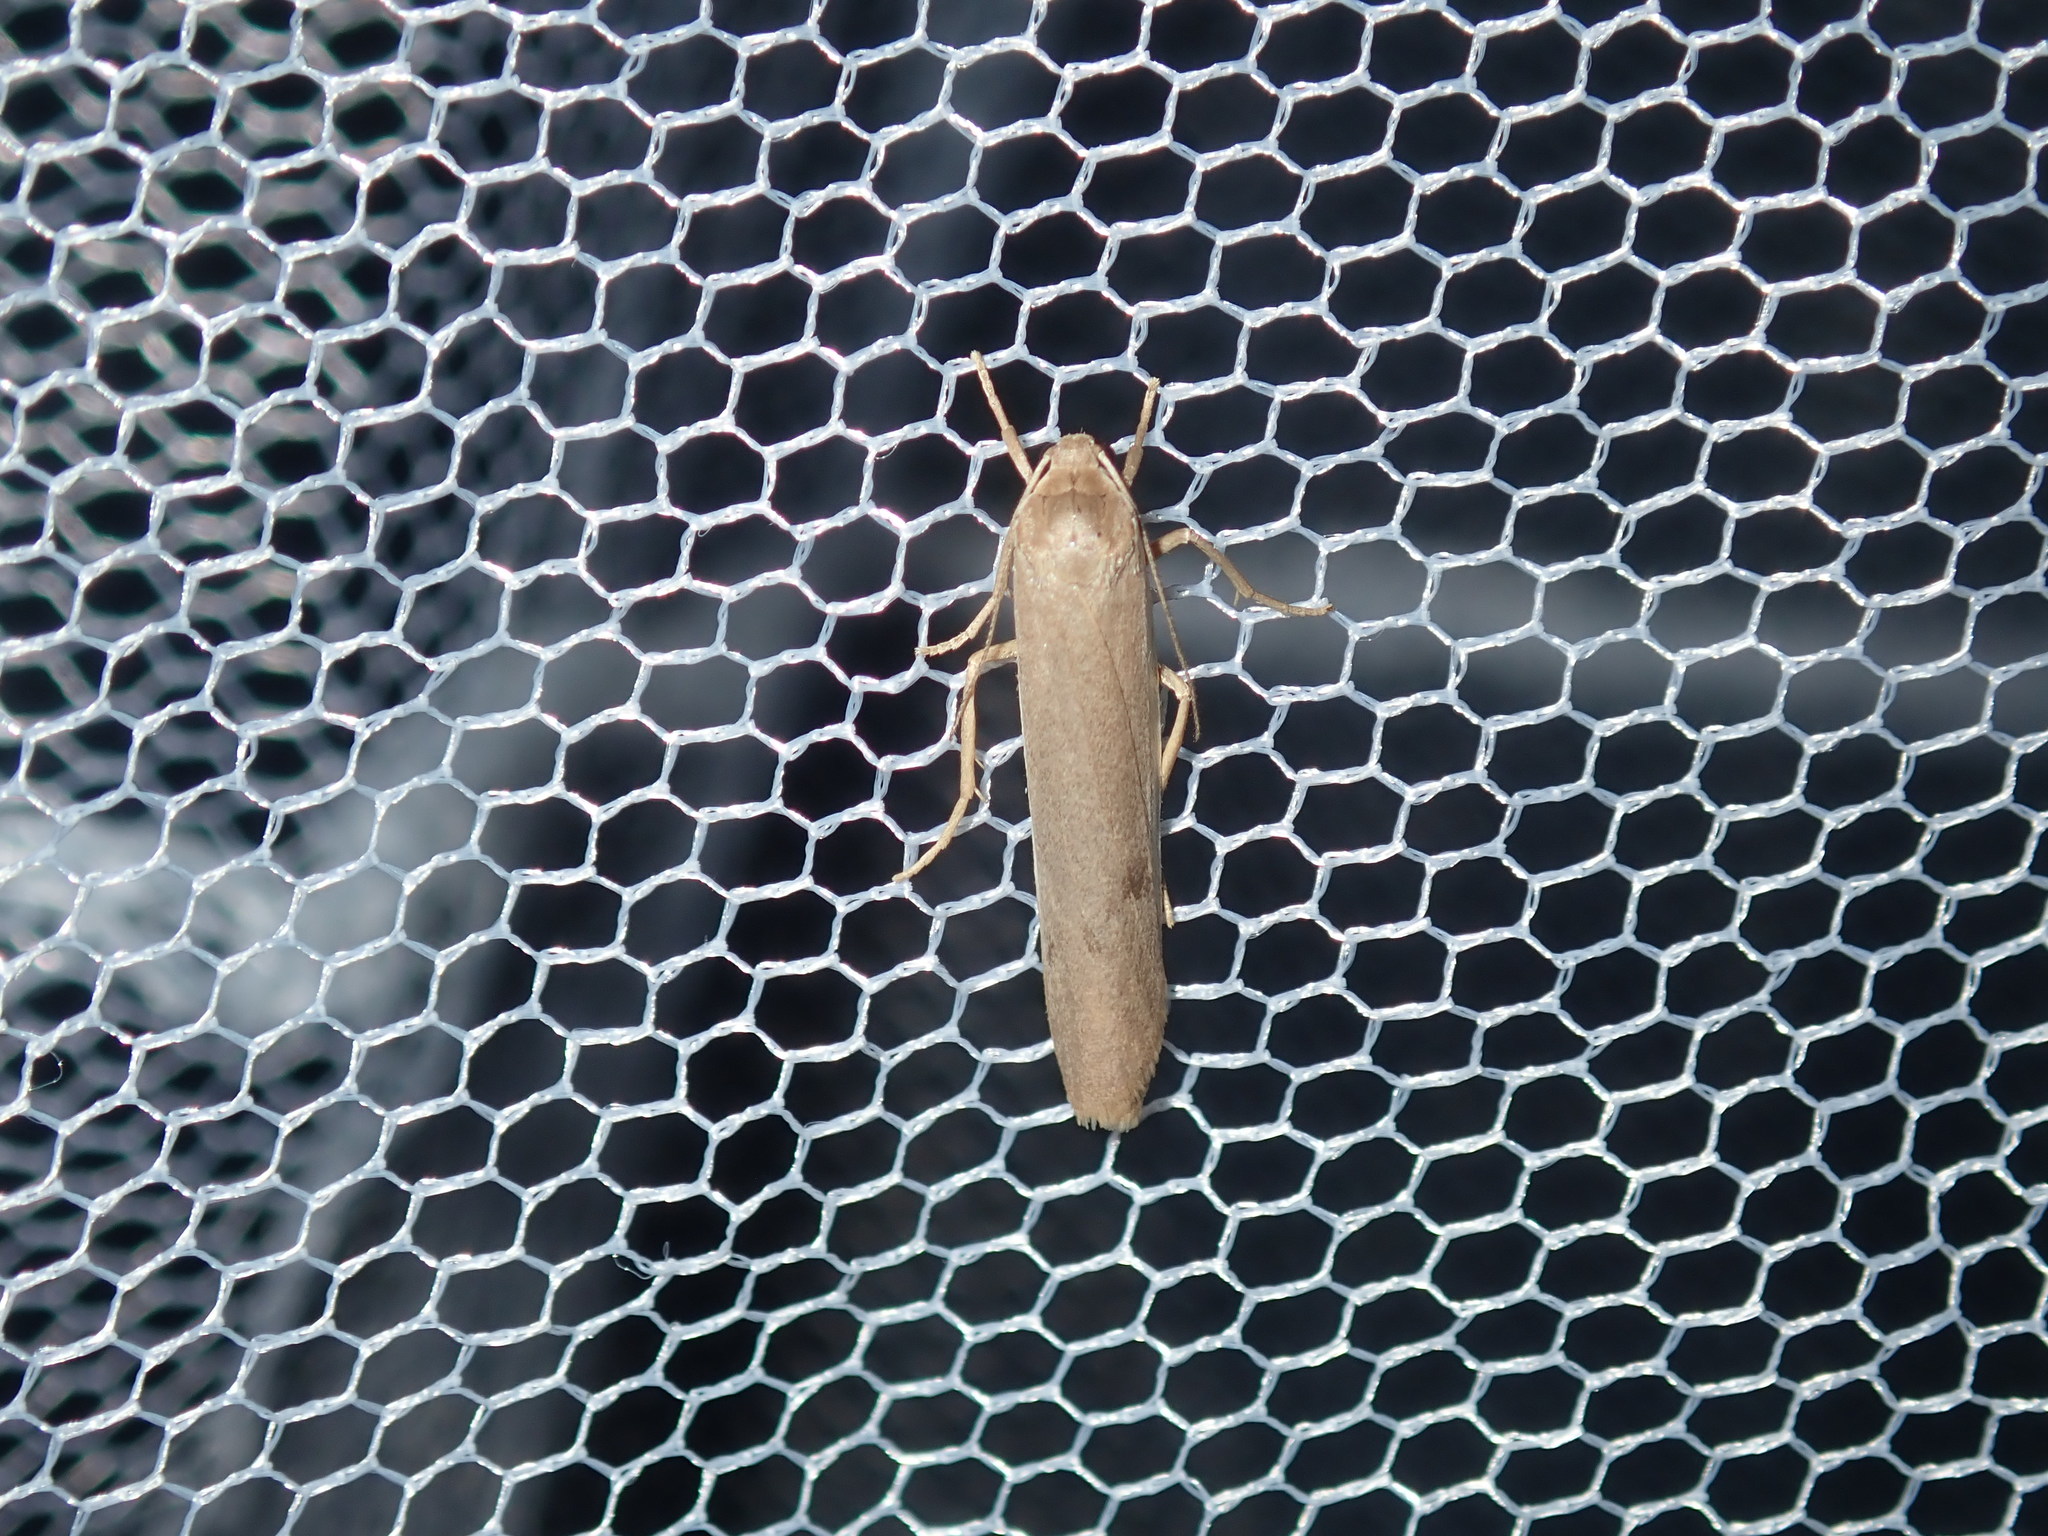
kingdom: Animalia
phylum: Arthropoda
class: Insecta
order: Lepidoptera
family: Erebidae
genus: Scoliacma
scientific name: Scoliacma nana
